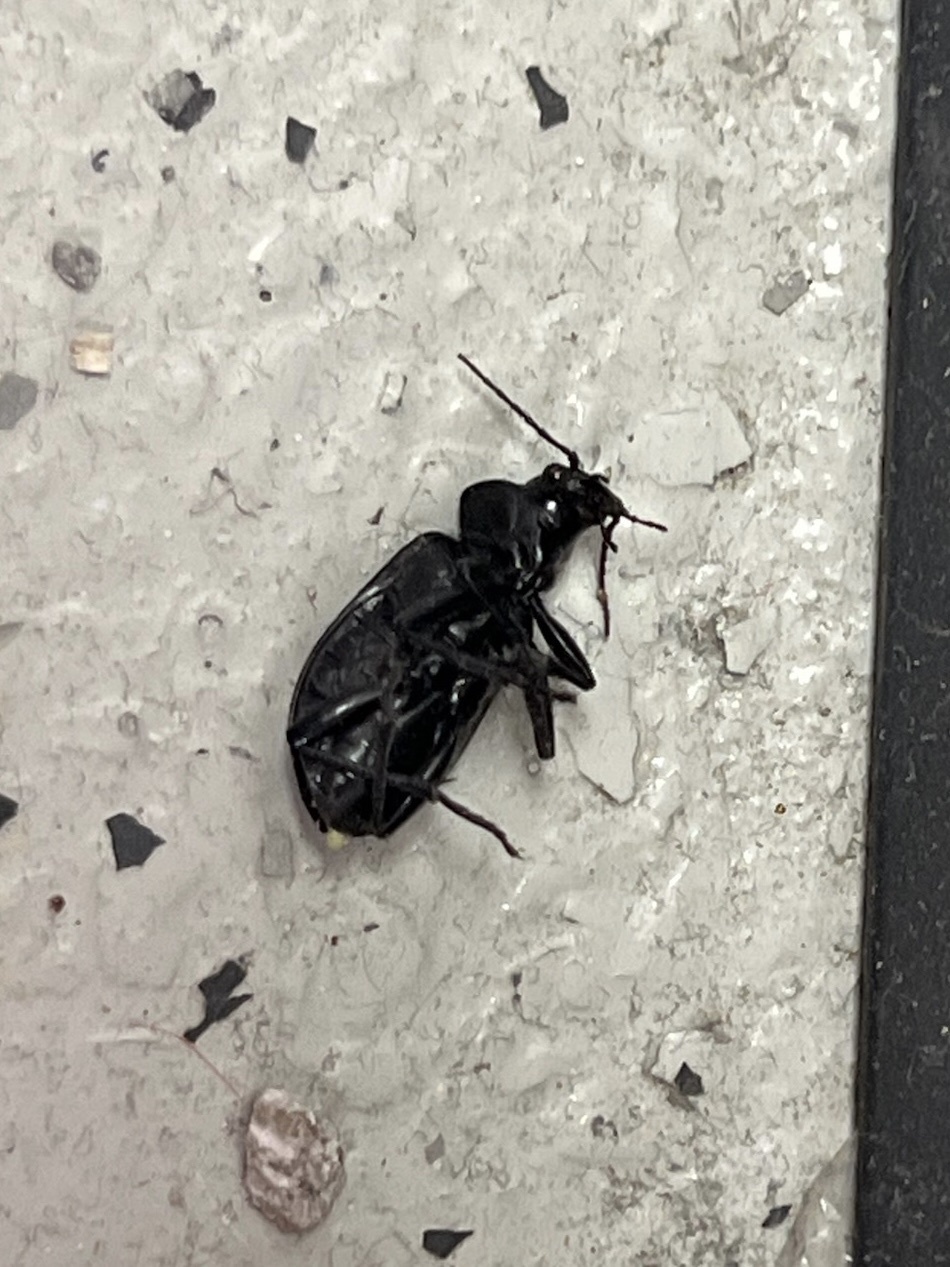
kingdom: Animalia
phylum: Arthropoda
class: Insecta
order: Coleoptera
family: Carabidae
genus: Calosoma
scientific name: Calosoma marginale
